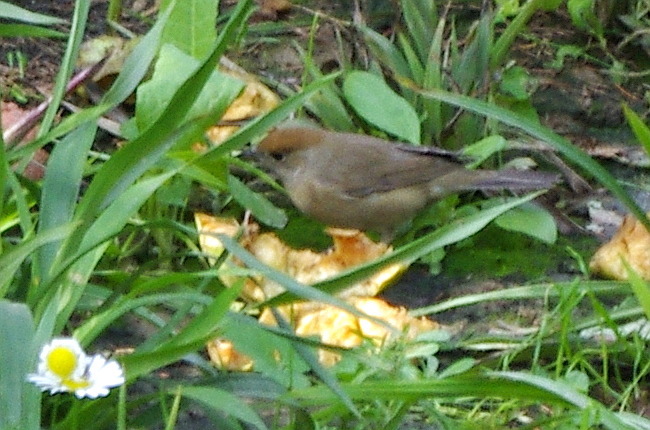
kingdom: Animalia
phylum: Chordata
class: Aves
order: Passeriformes
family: Sylviidae
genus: Sylvia
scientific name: Sylvia atricapilla
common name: Eurasian blackcap
